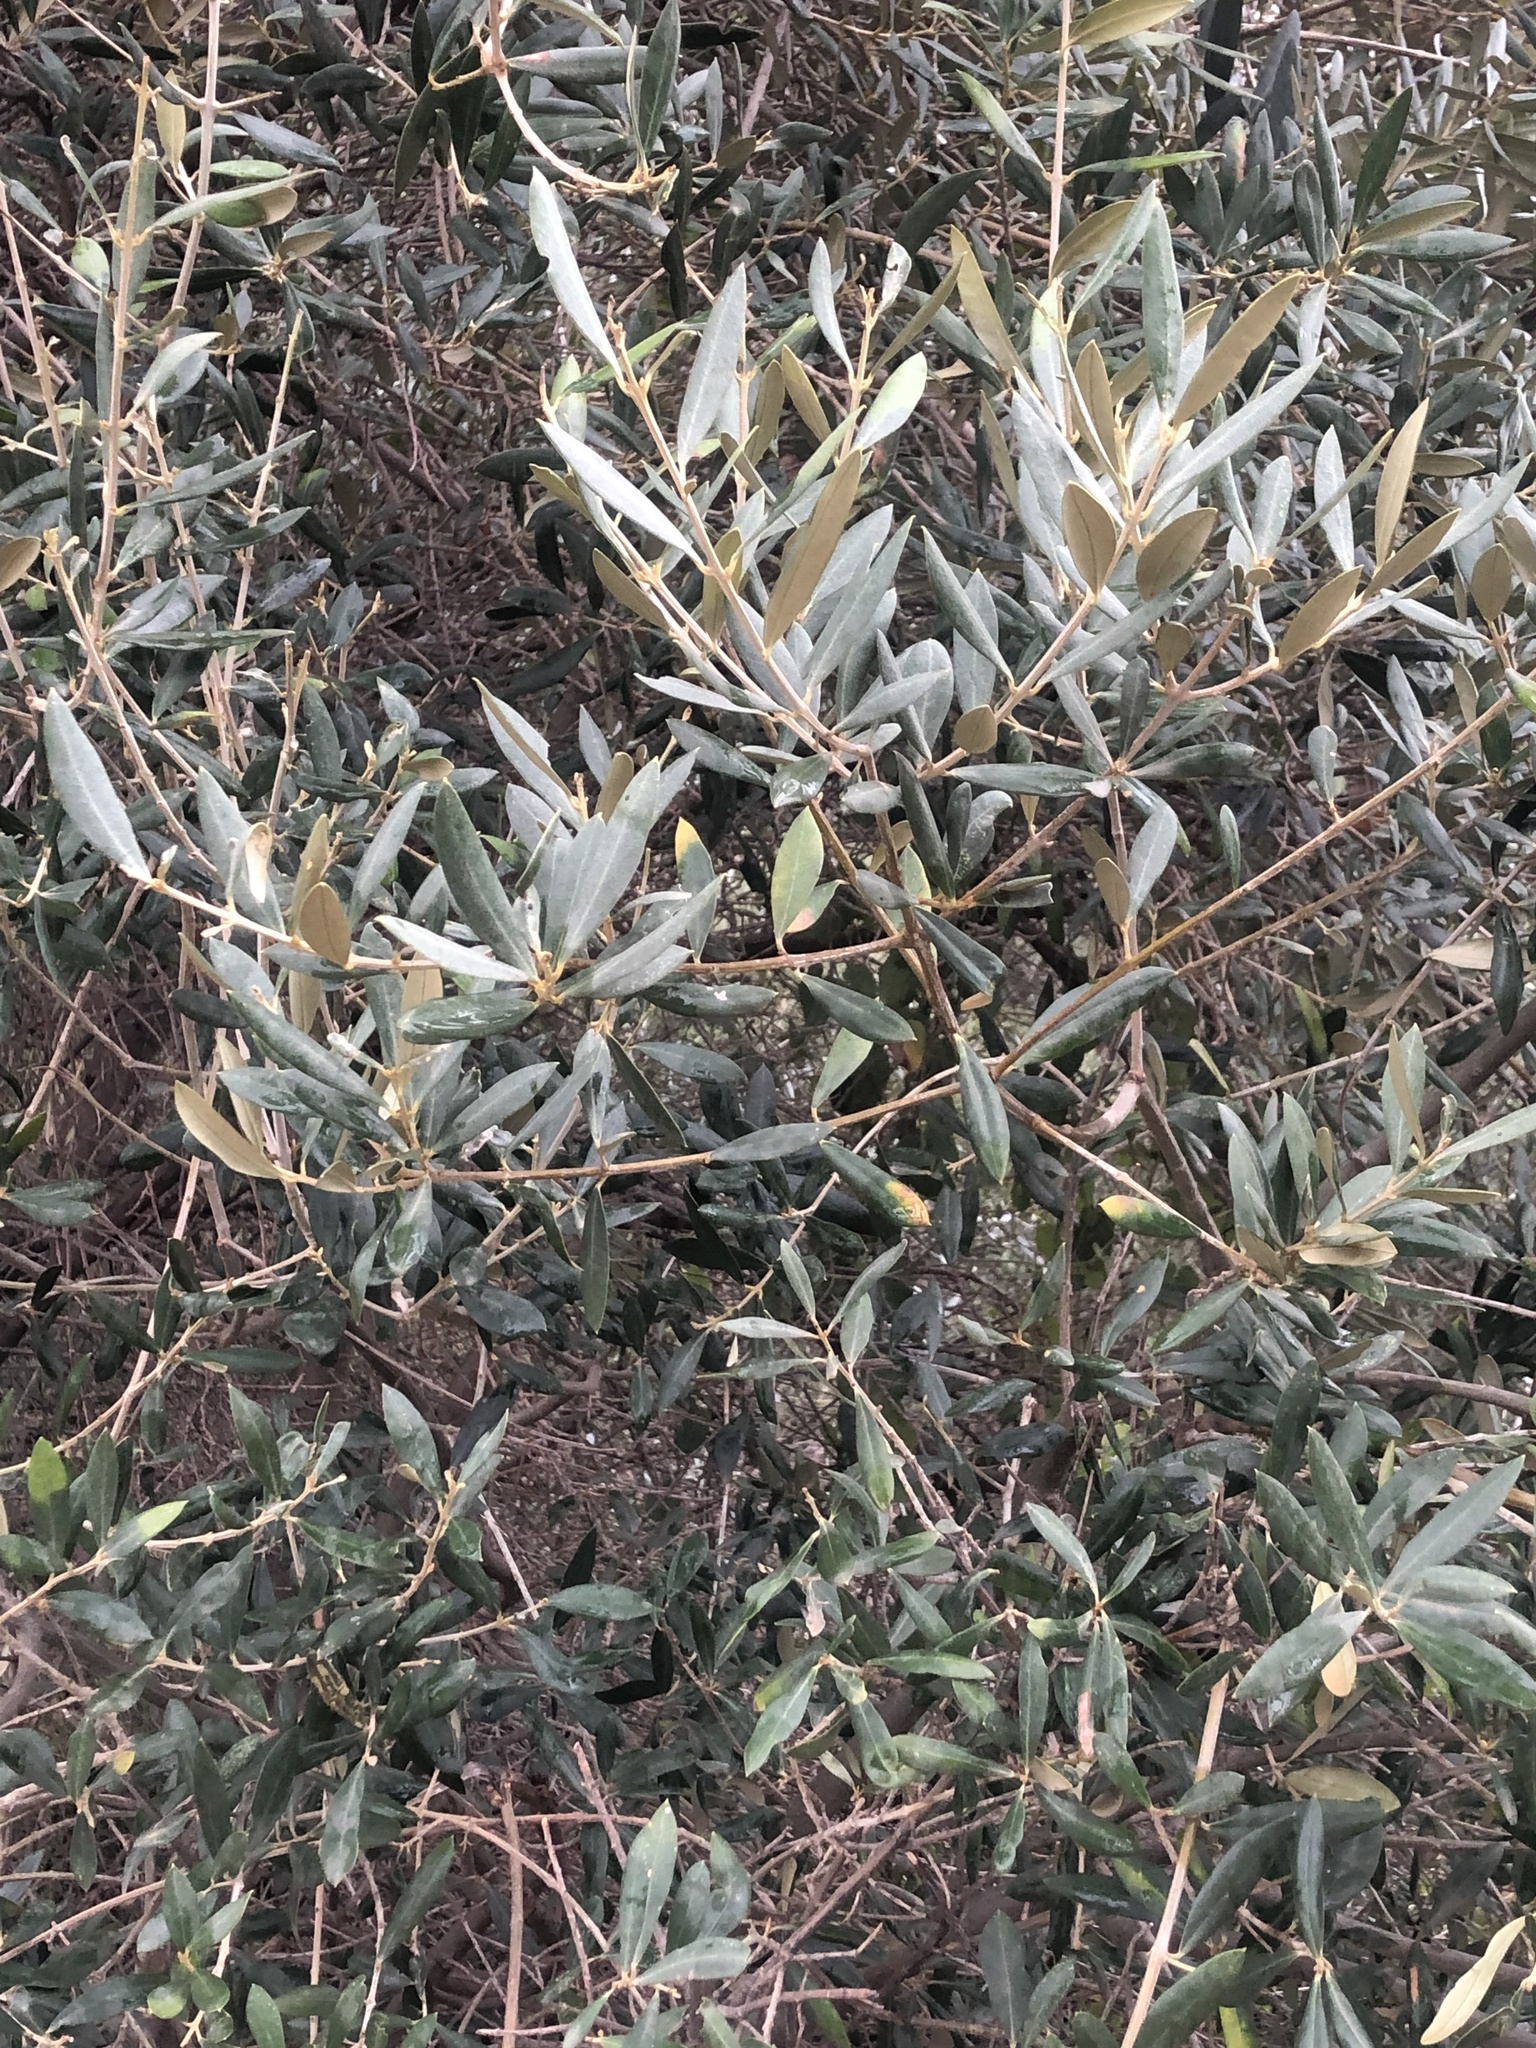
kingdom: Plantae
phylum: Tracheophyta
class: Magnoliopsida
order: Lamiales
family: Oleaceae
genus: Olea
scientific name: Olea europaea
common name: Olive
